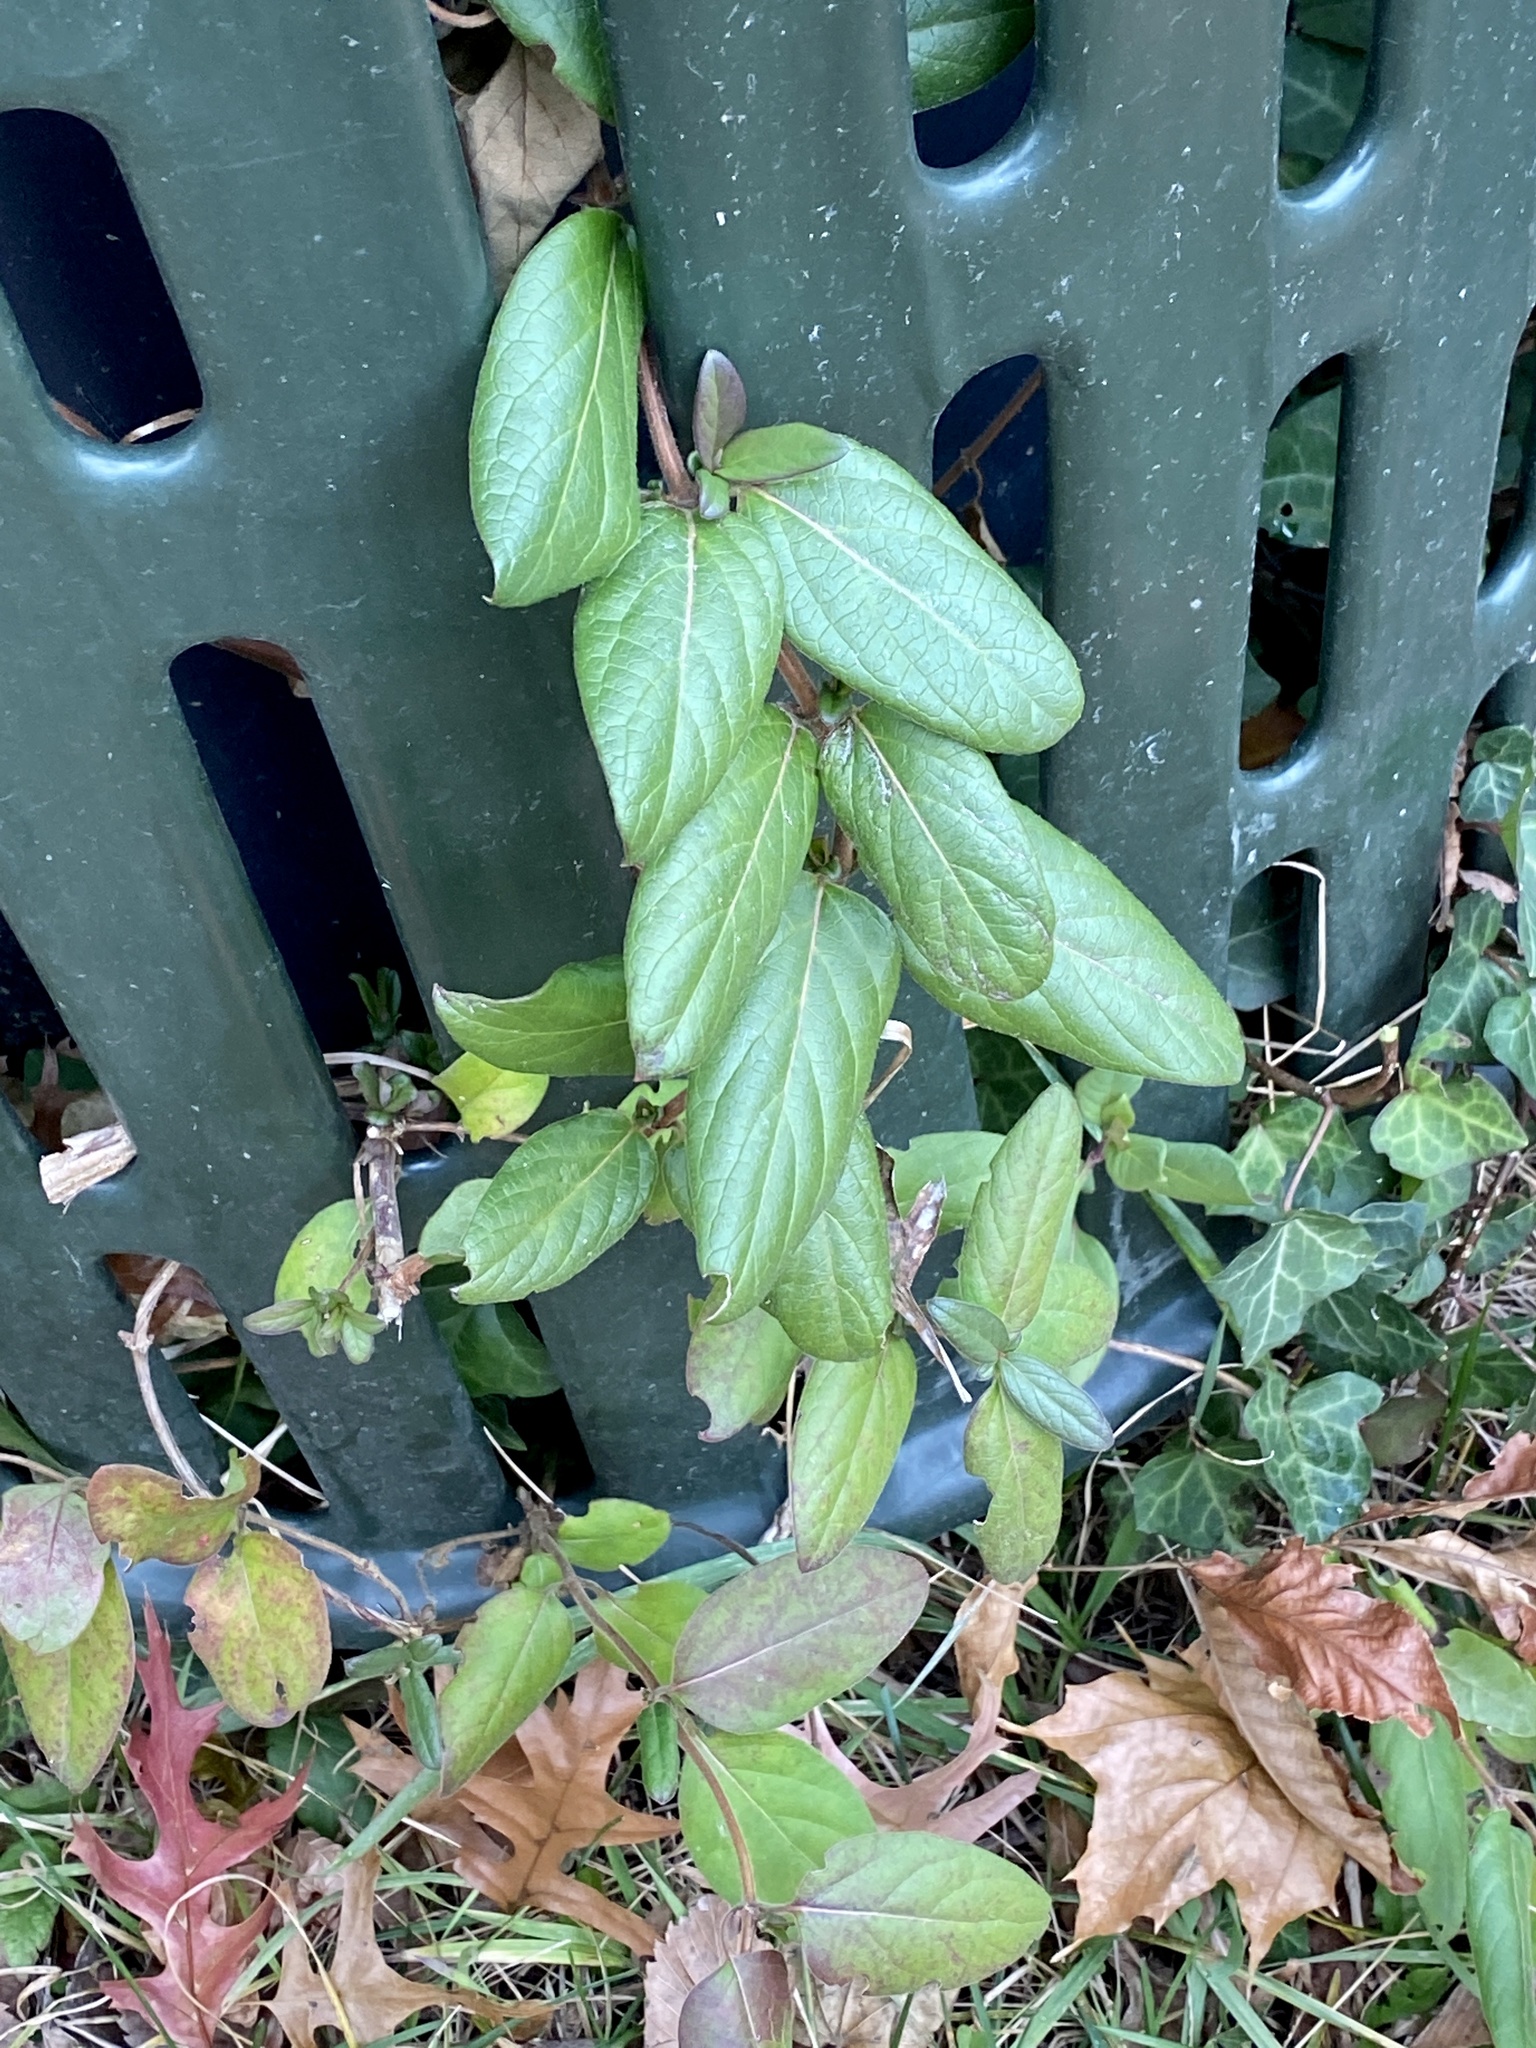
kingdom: Plantae
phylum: Tracheophyta
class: Magnoliopsida
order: Dipsacales
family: Caprifoliaceae
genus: Lonicera
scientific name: Lonicera japonica
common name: Japanese honeysuckle
